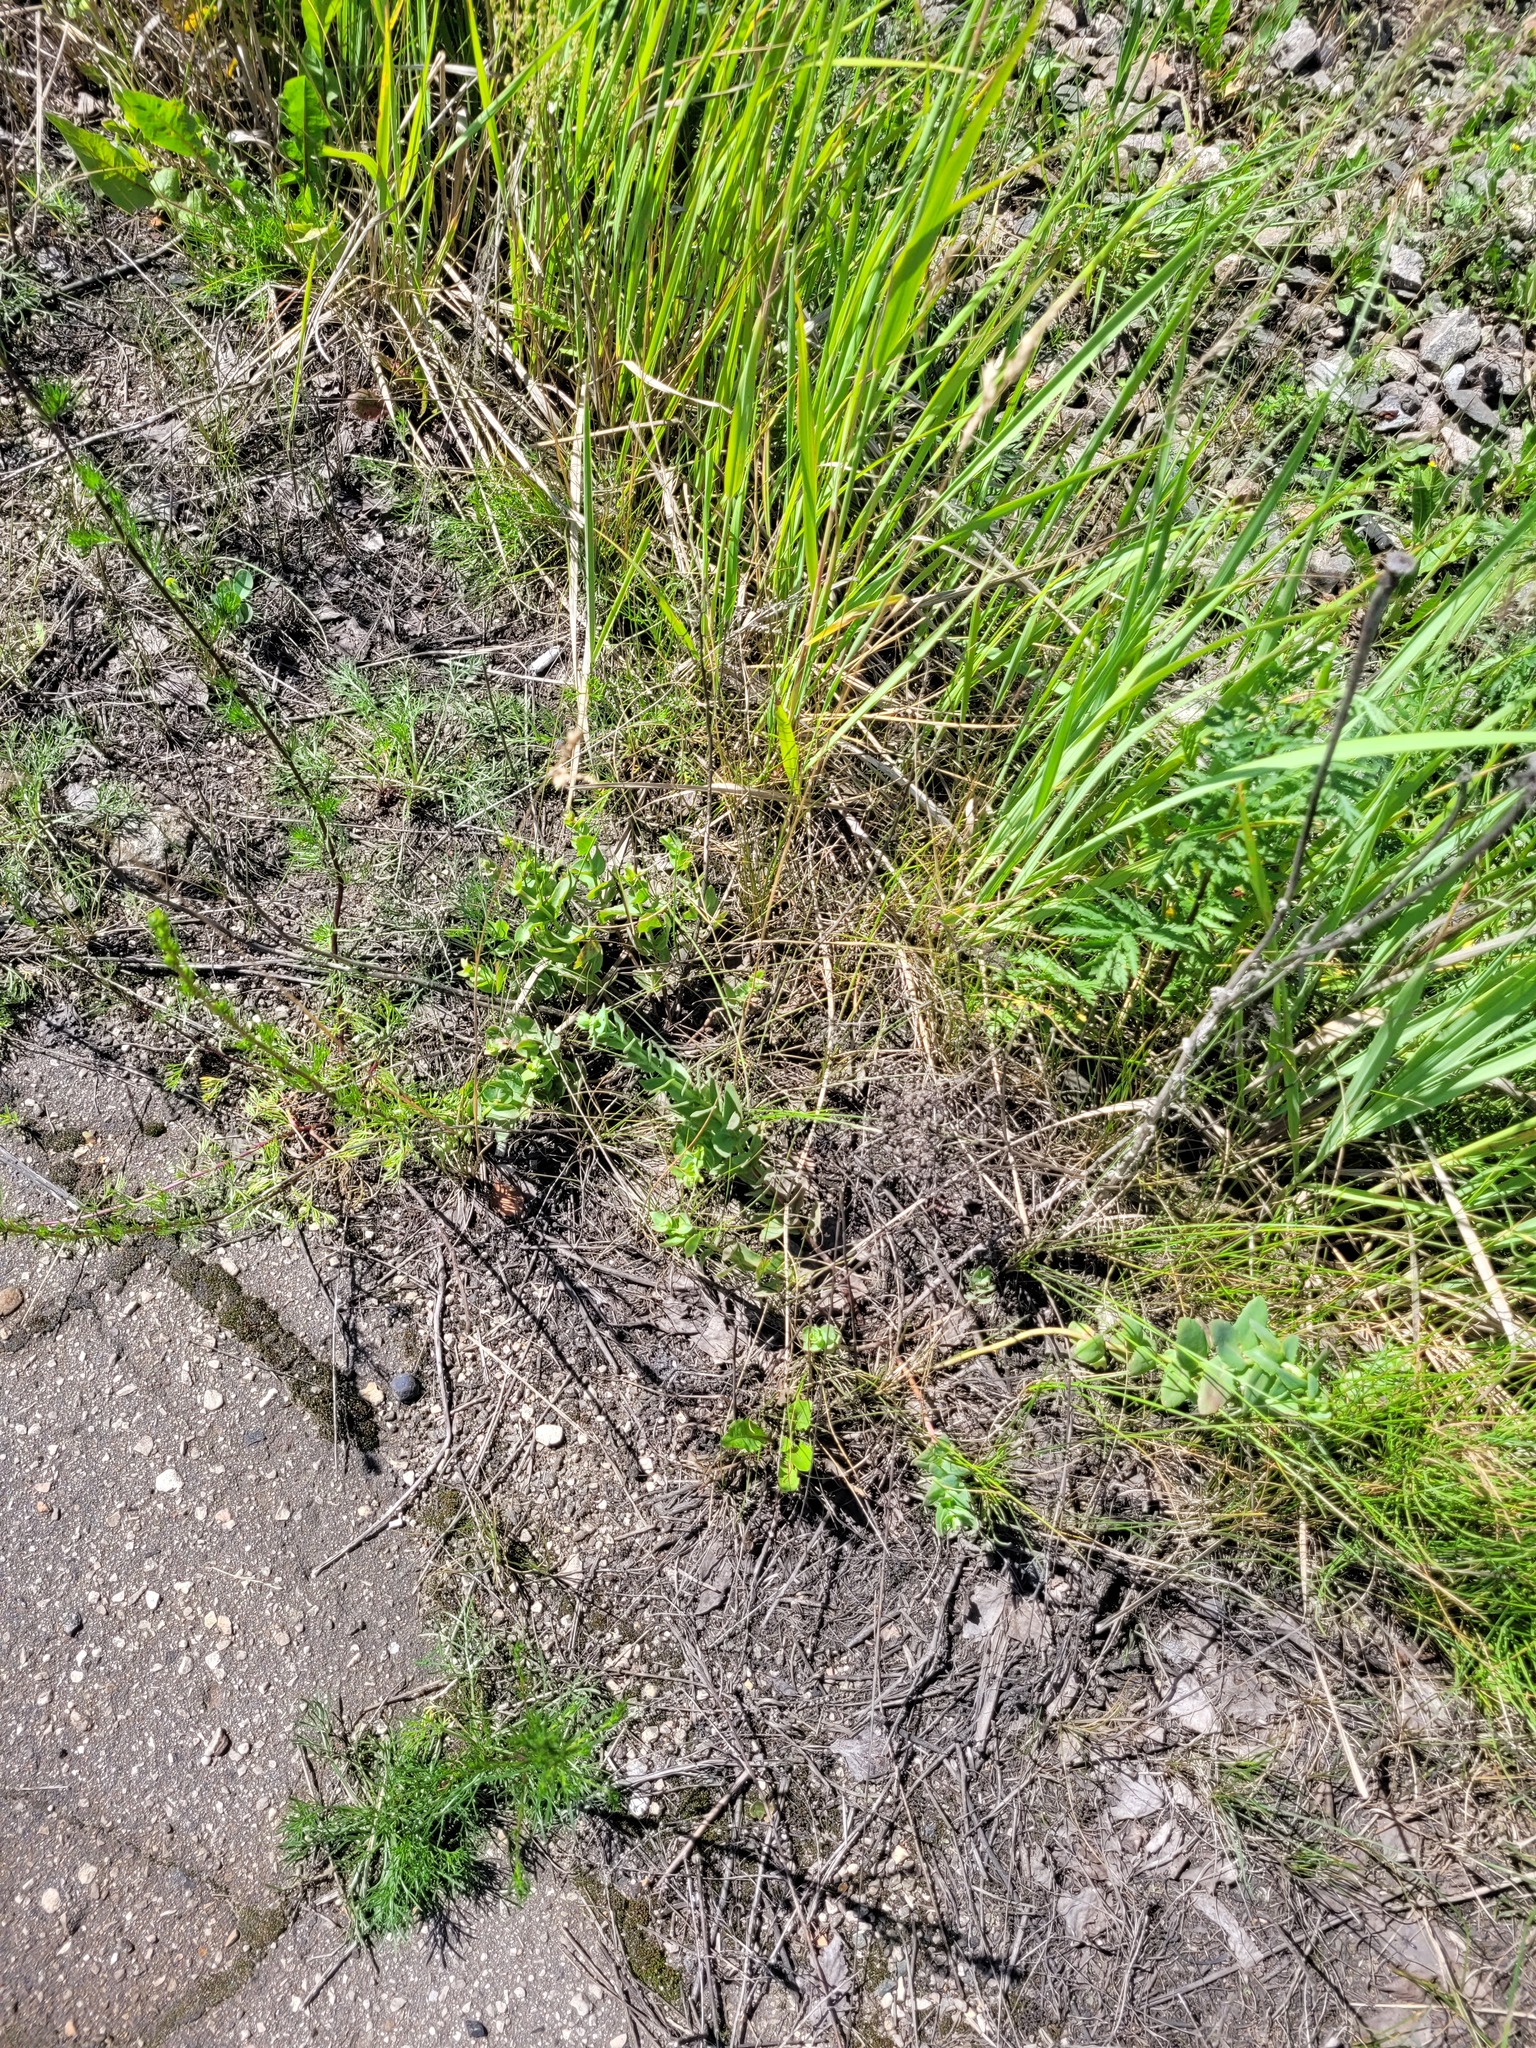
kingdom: Plantae
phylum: Tracheophyta
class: Magnoliopsida
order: Saxifragales
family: Crassulaceae
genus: Hylotelephium
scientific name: Hylotelephium maximum
